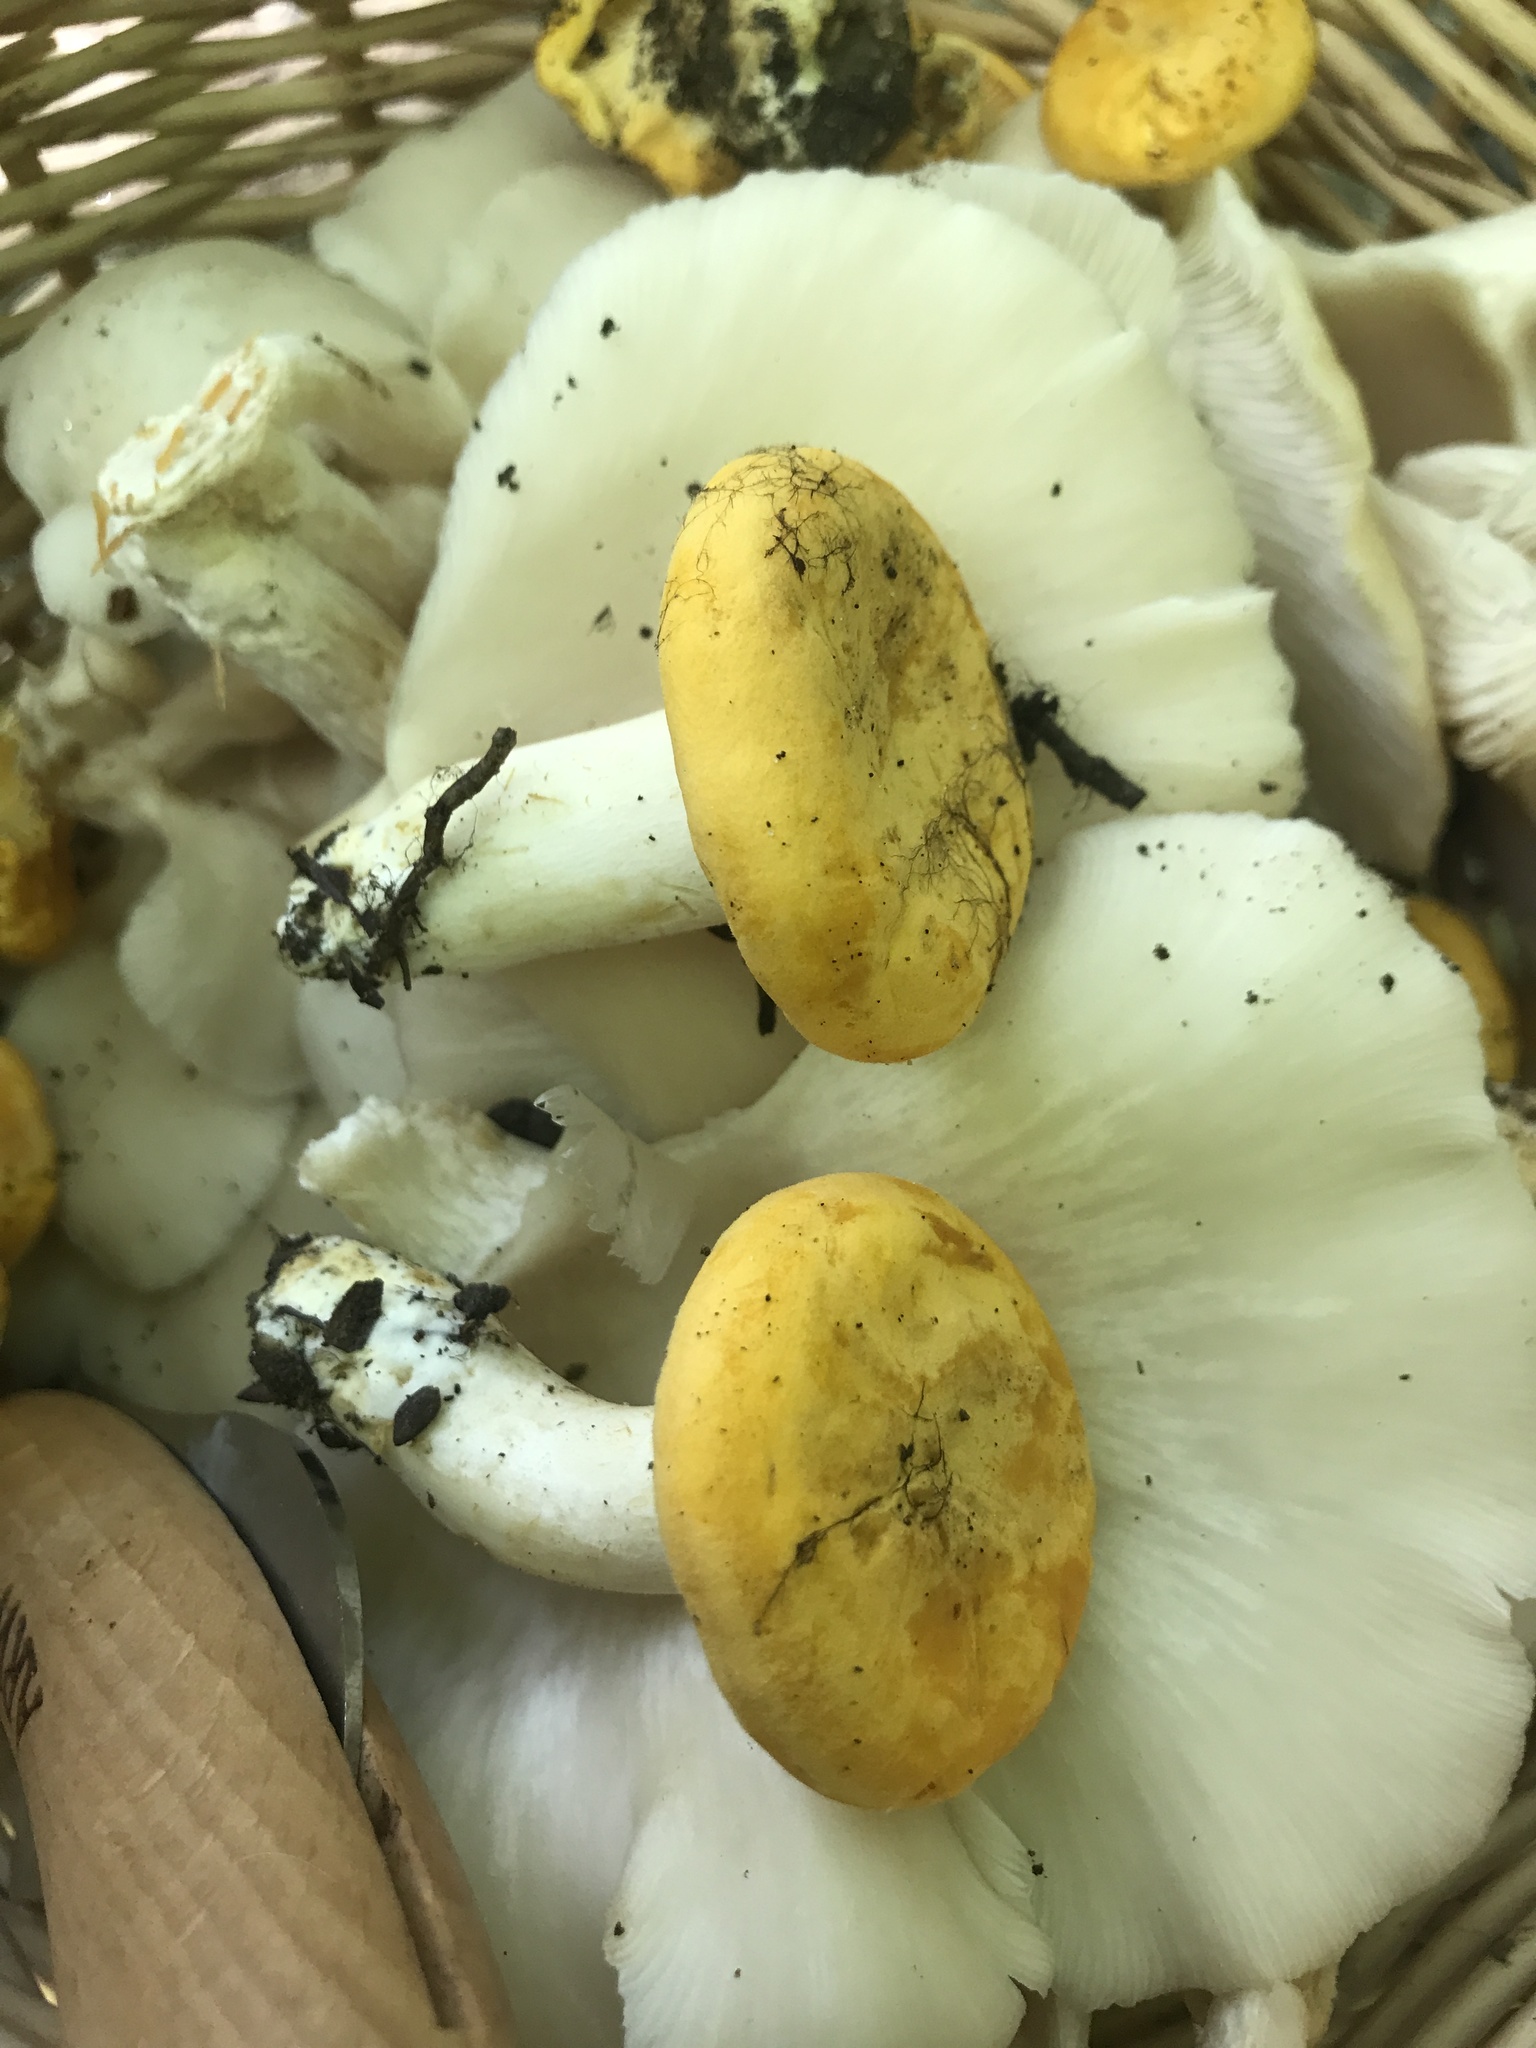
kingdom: Fungi
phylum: Basidiomycota
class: Agaricomycetes
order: Cantharellales
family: Hydnaceae
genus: Cantharellus
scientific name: Cantharellus phasmatis
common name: Ghost chanterelle
